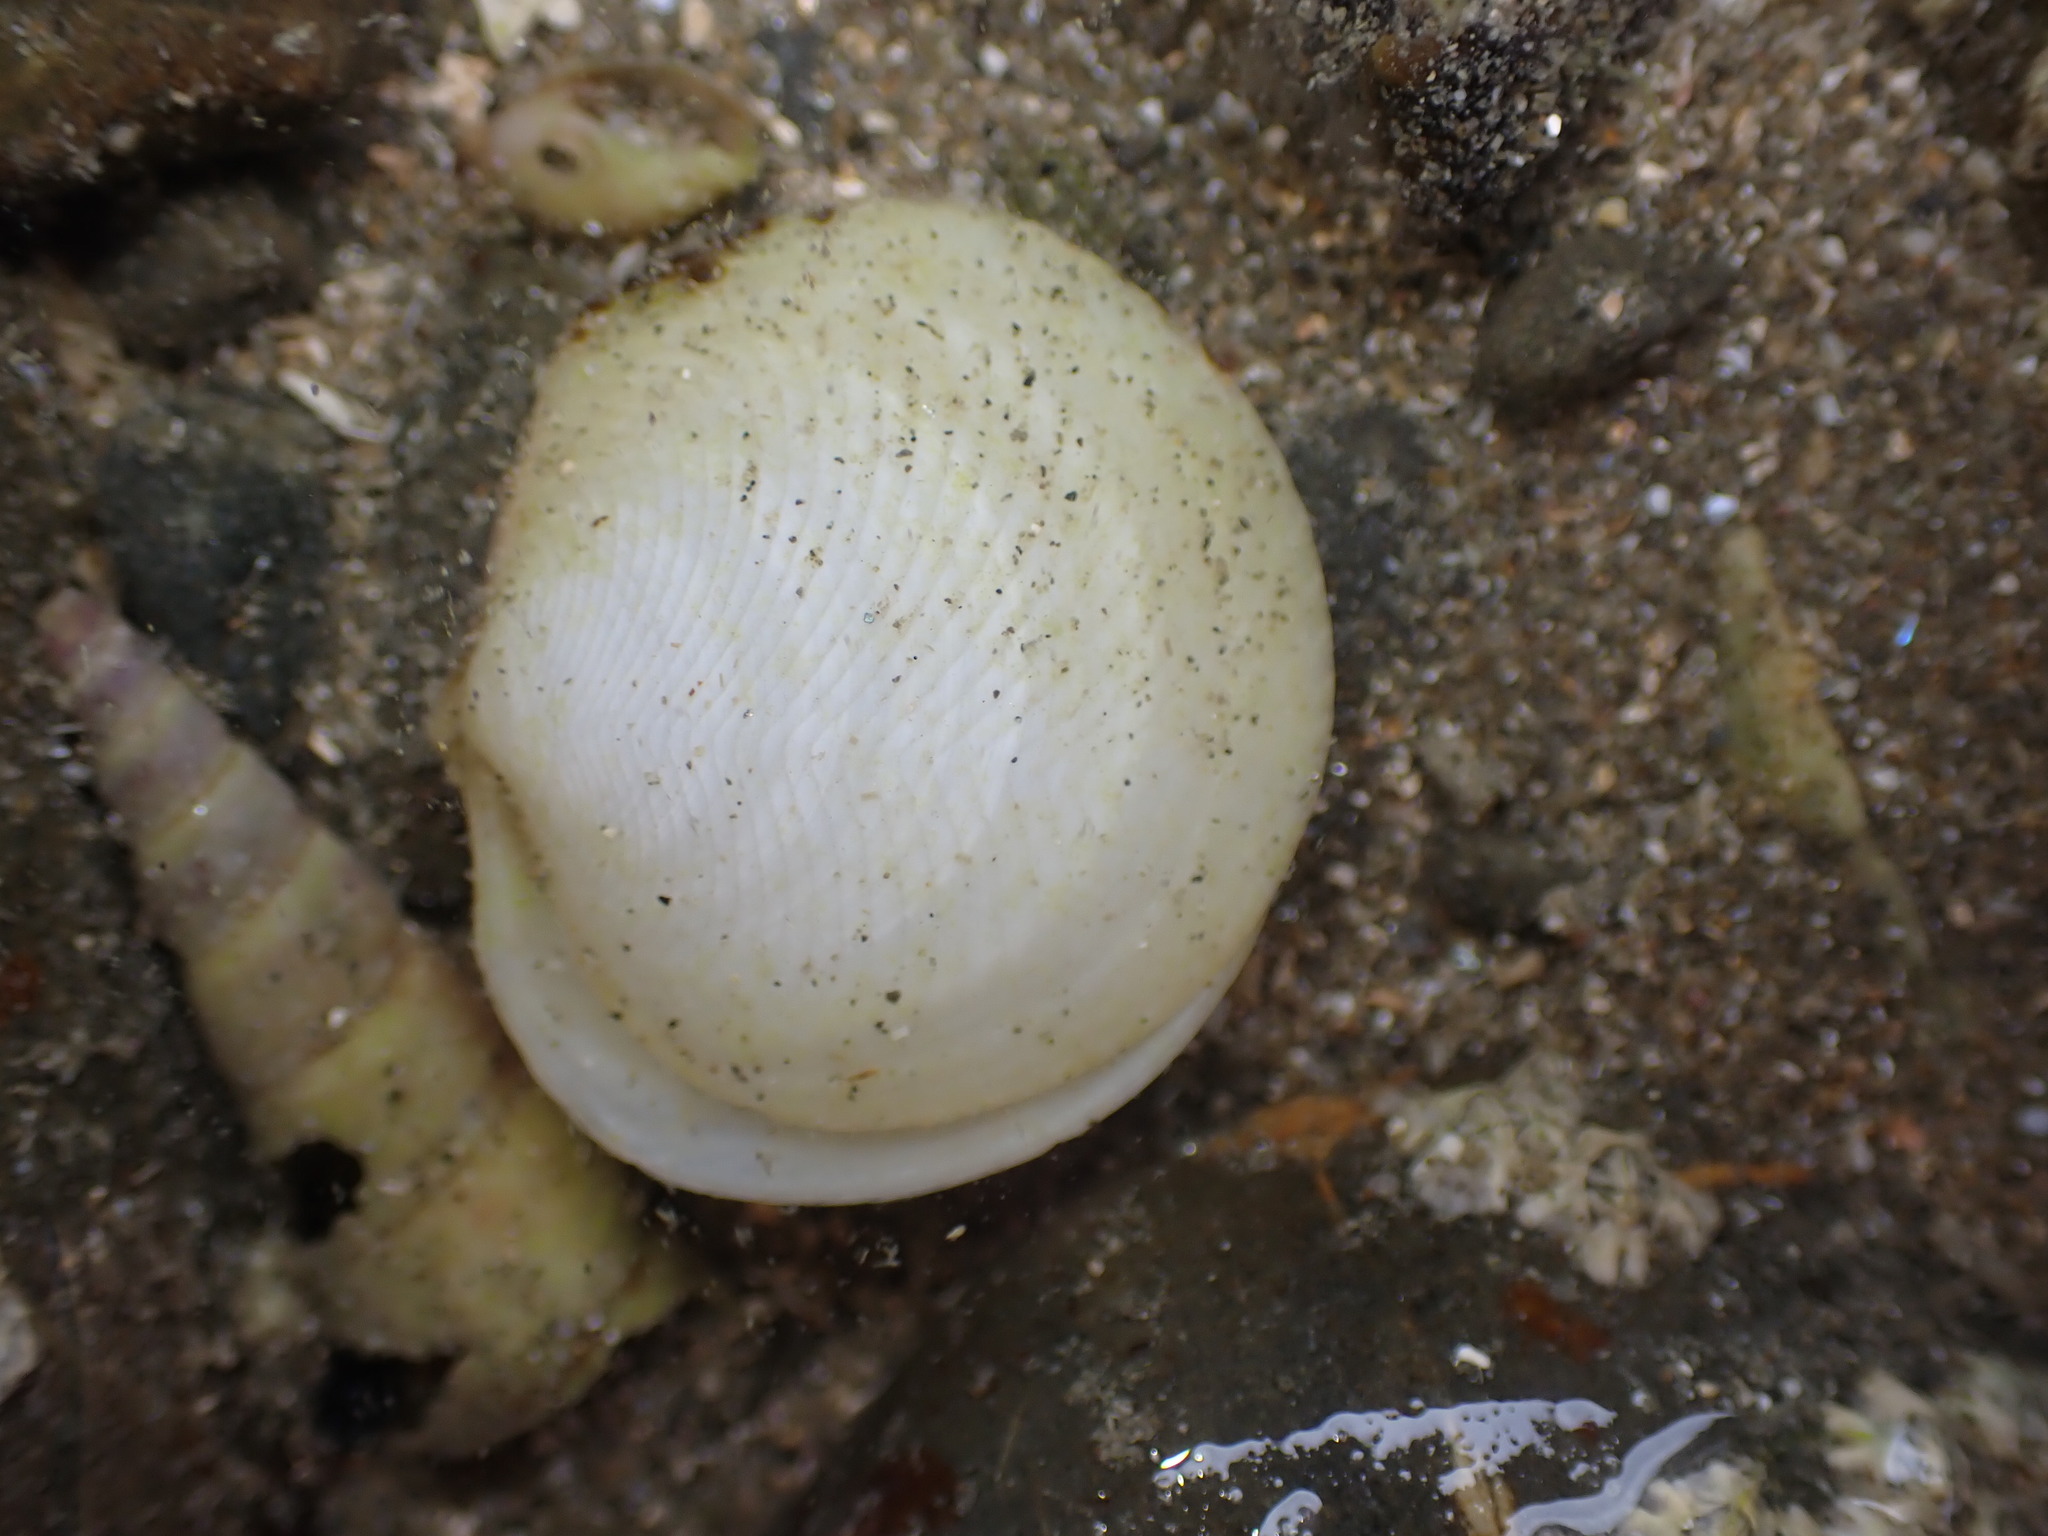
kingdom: Animalia
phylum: Mollusca
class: Bivalvia
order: Lucinida
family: Lucinidae
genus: Divalucina
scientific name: Divalucina cumingi
